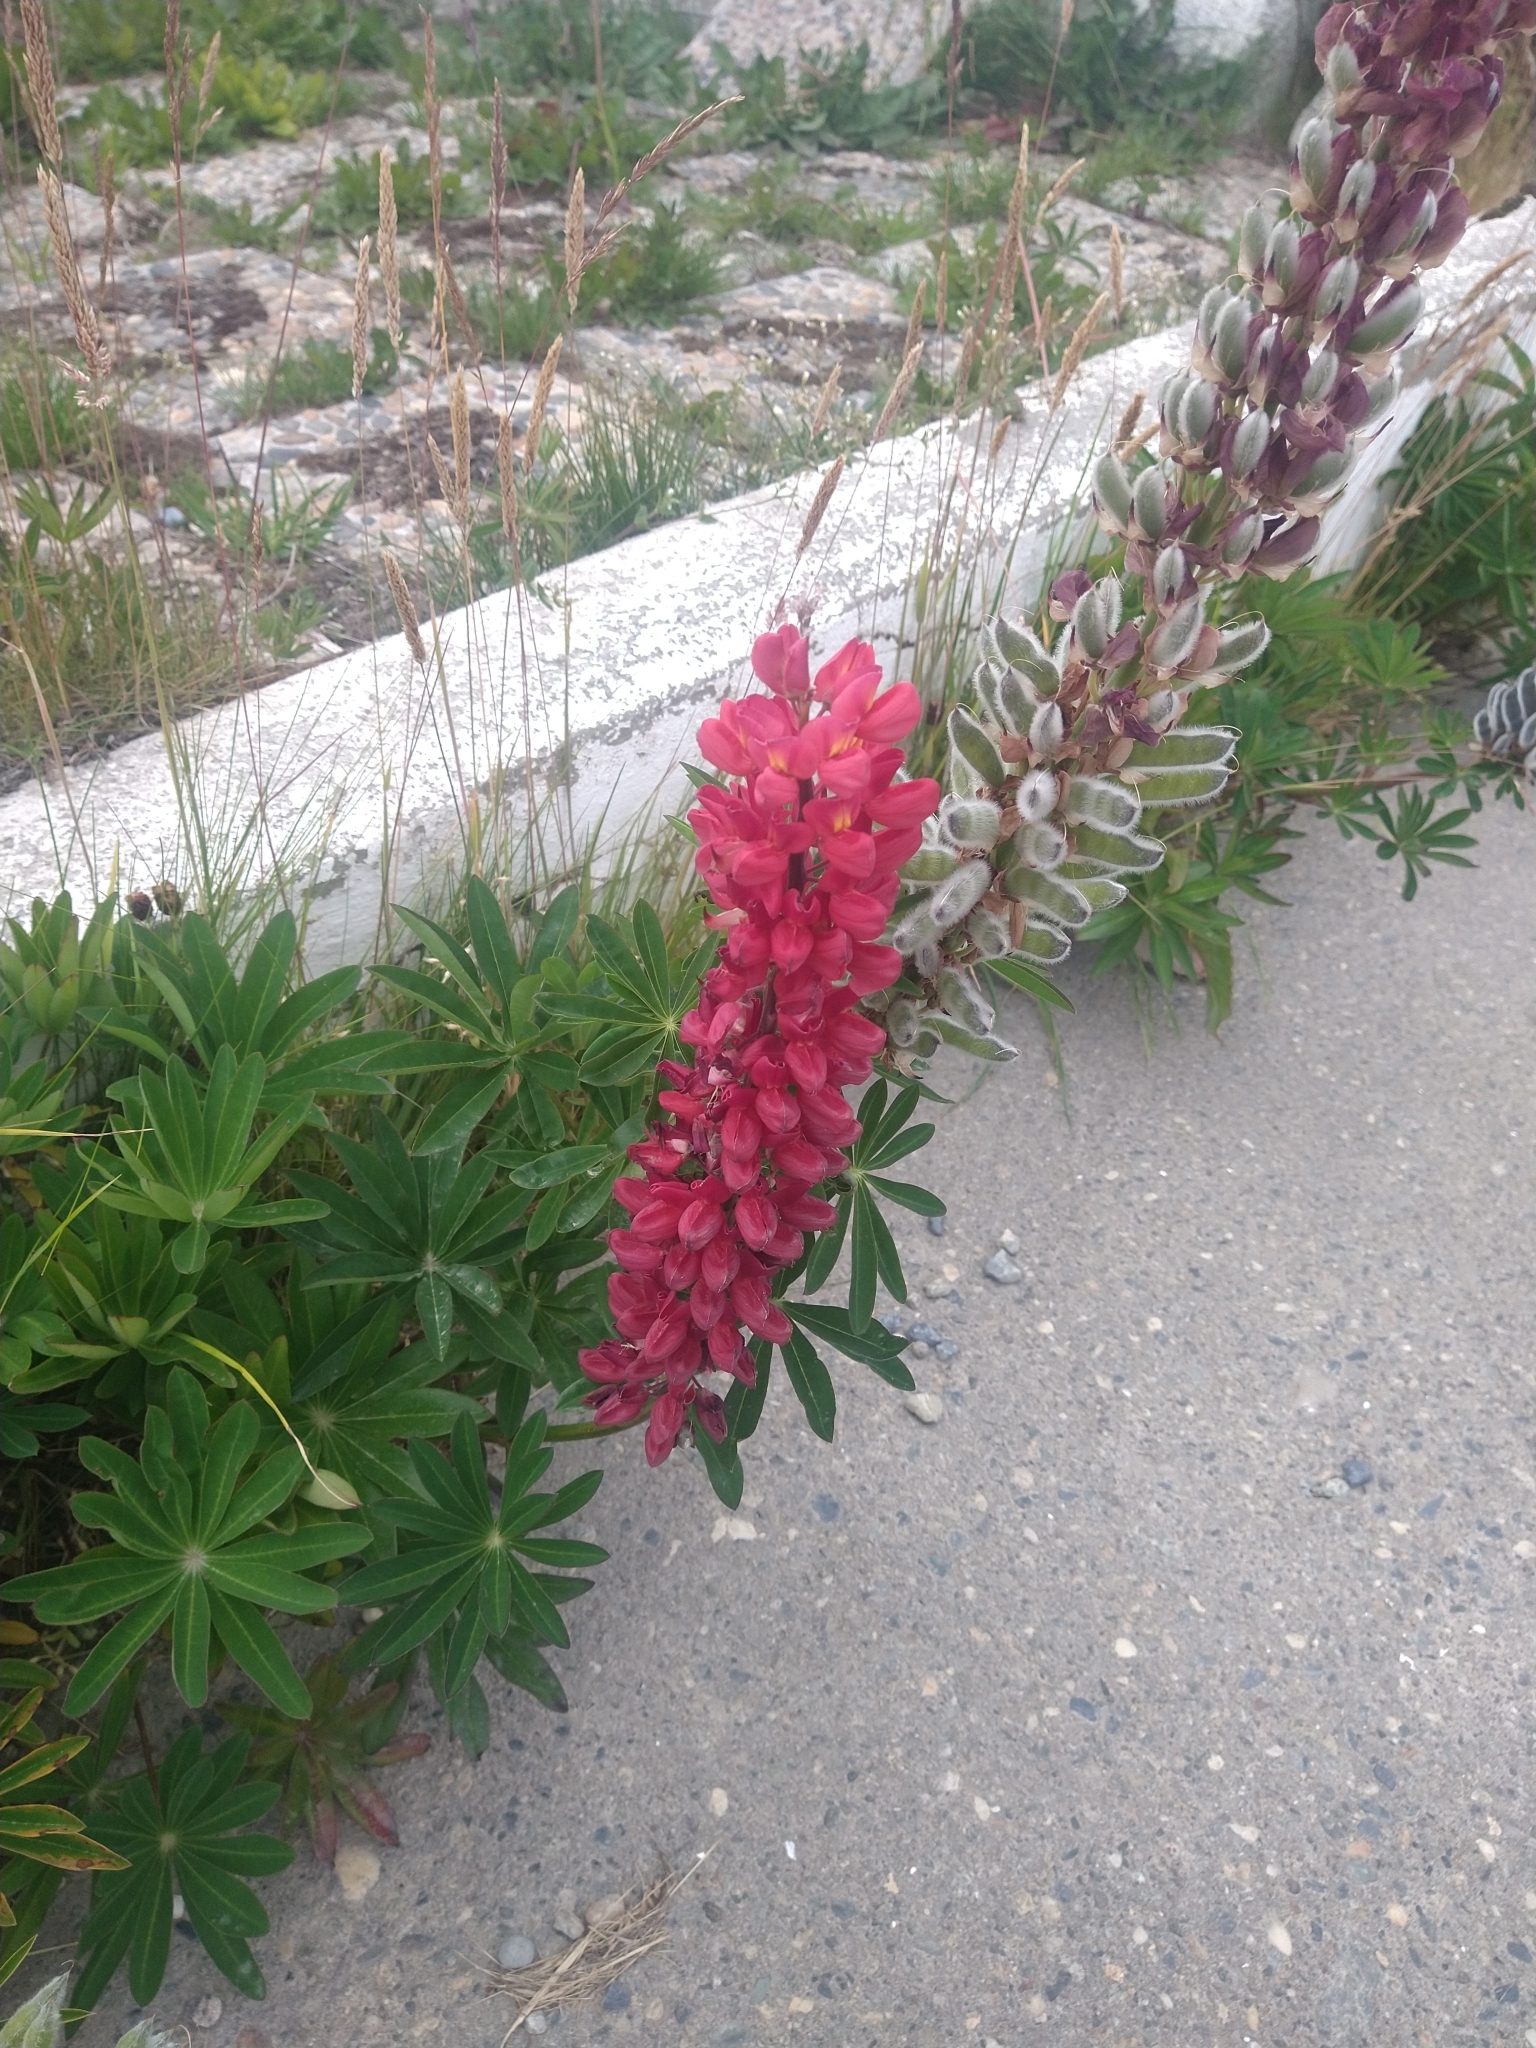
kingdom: Plantae
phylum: Tracheophyta
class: Magnoliopsida
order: Fabales
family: Fabaceae
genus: Lupinus
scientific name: Lupinus polyphyllus
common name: Garden lupin
